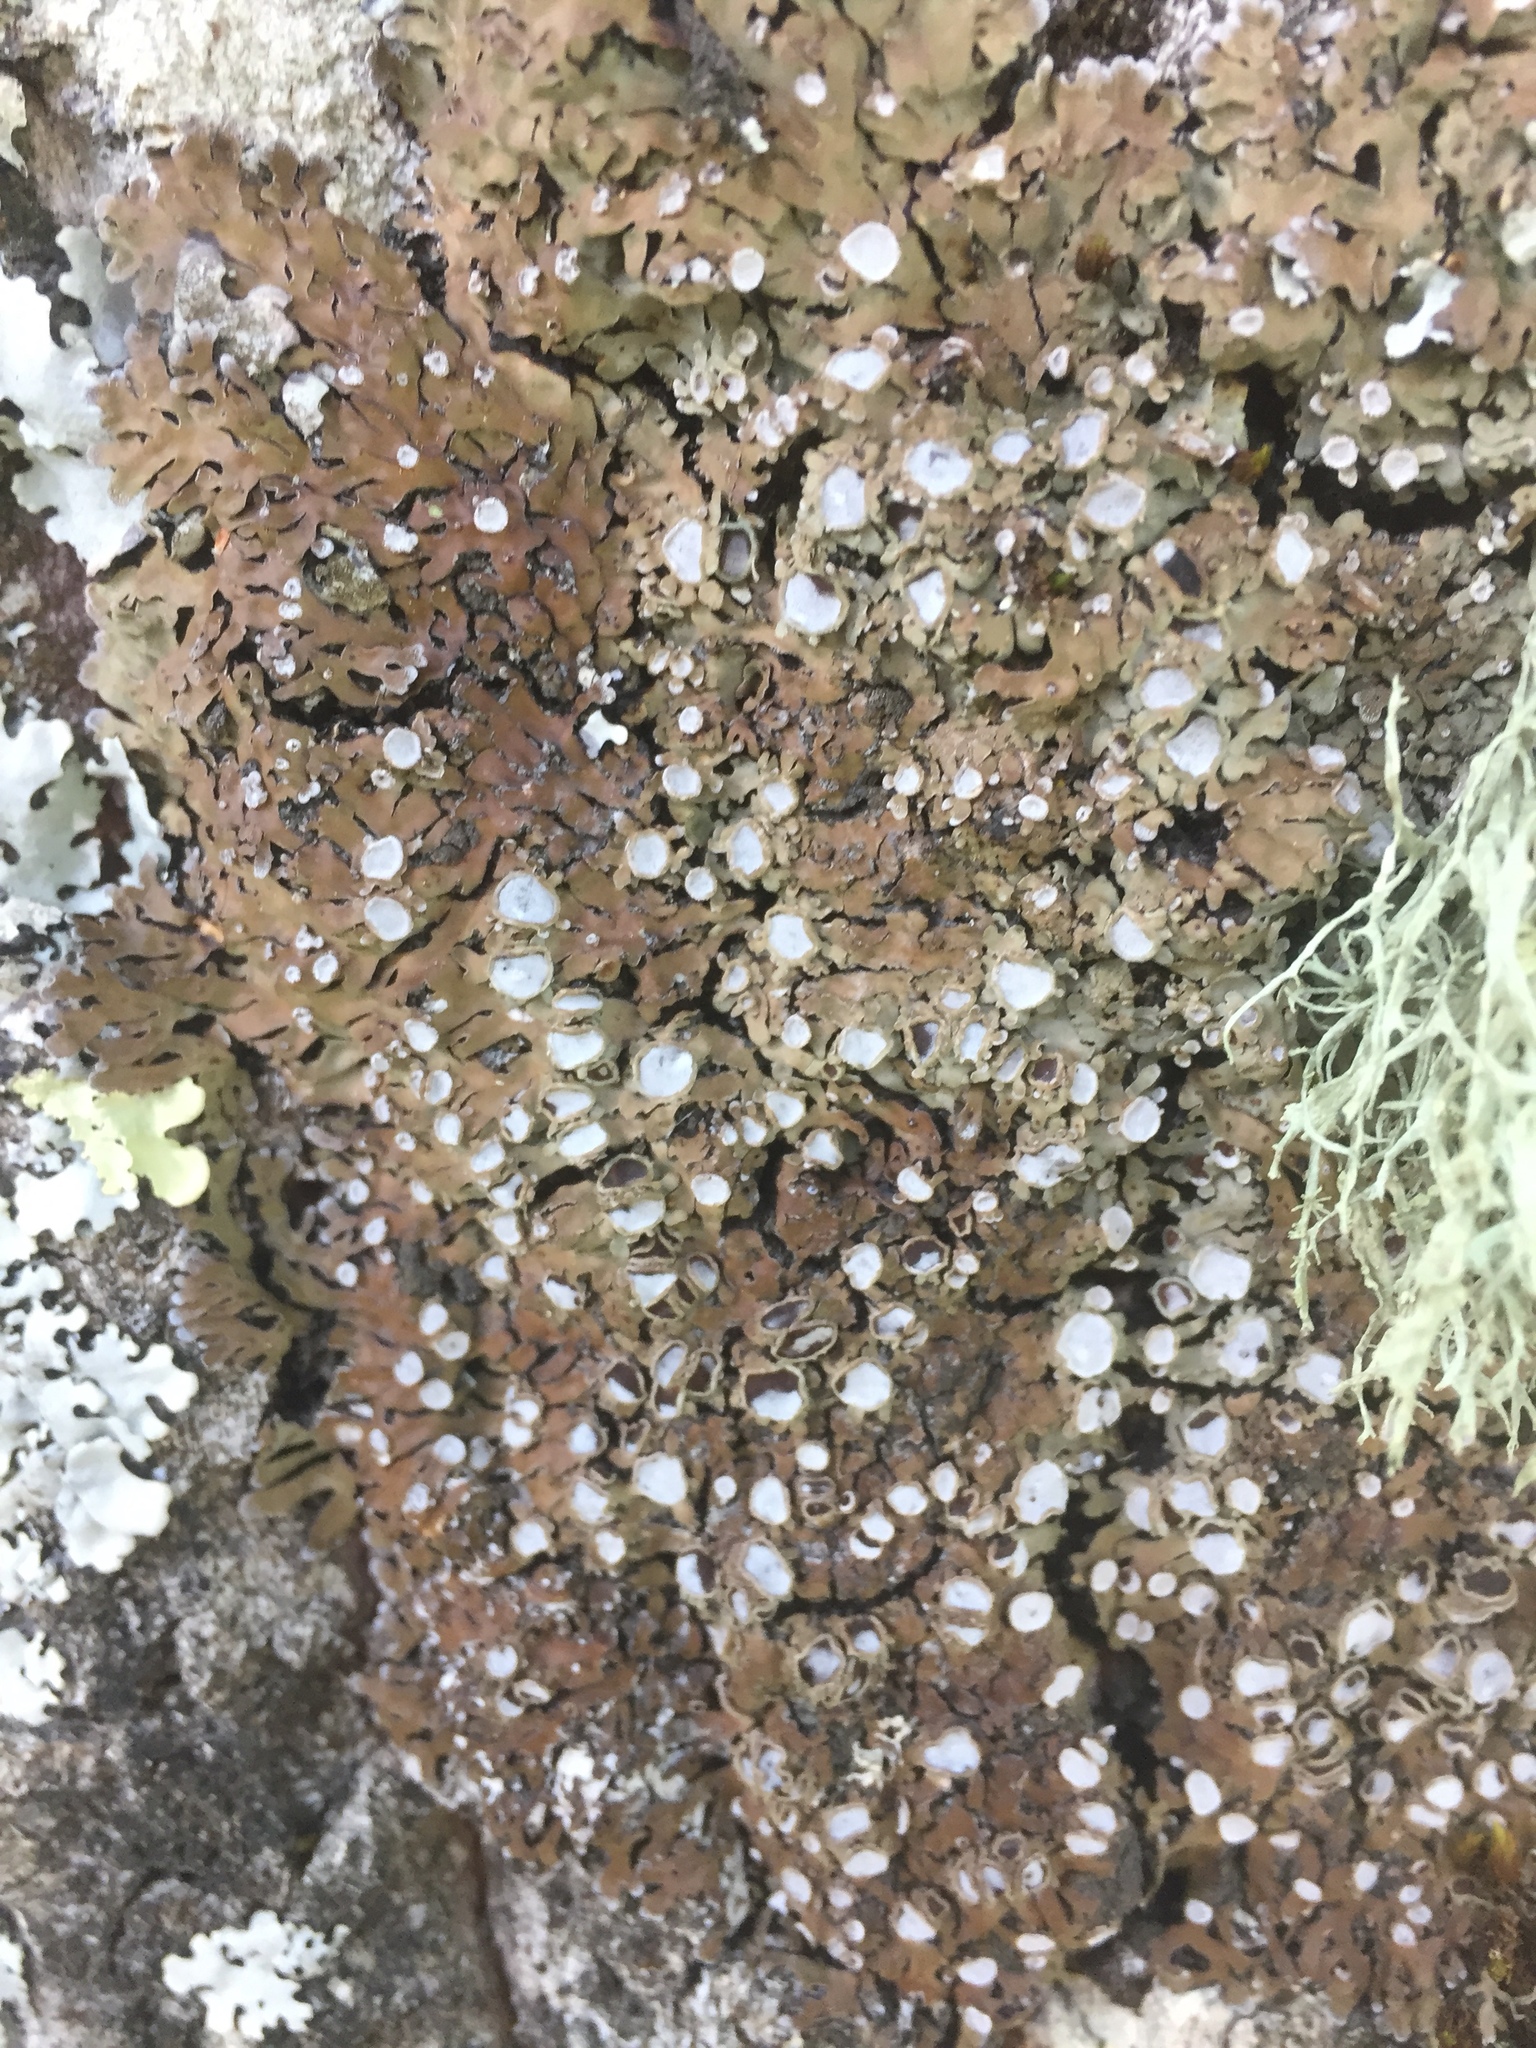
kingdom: Fungi
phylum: Ascomycota
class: Lecanoromycetes
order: Caliciales
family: Physciaceae
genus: Physconia
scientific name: Physconia distorta
